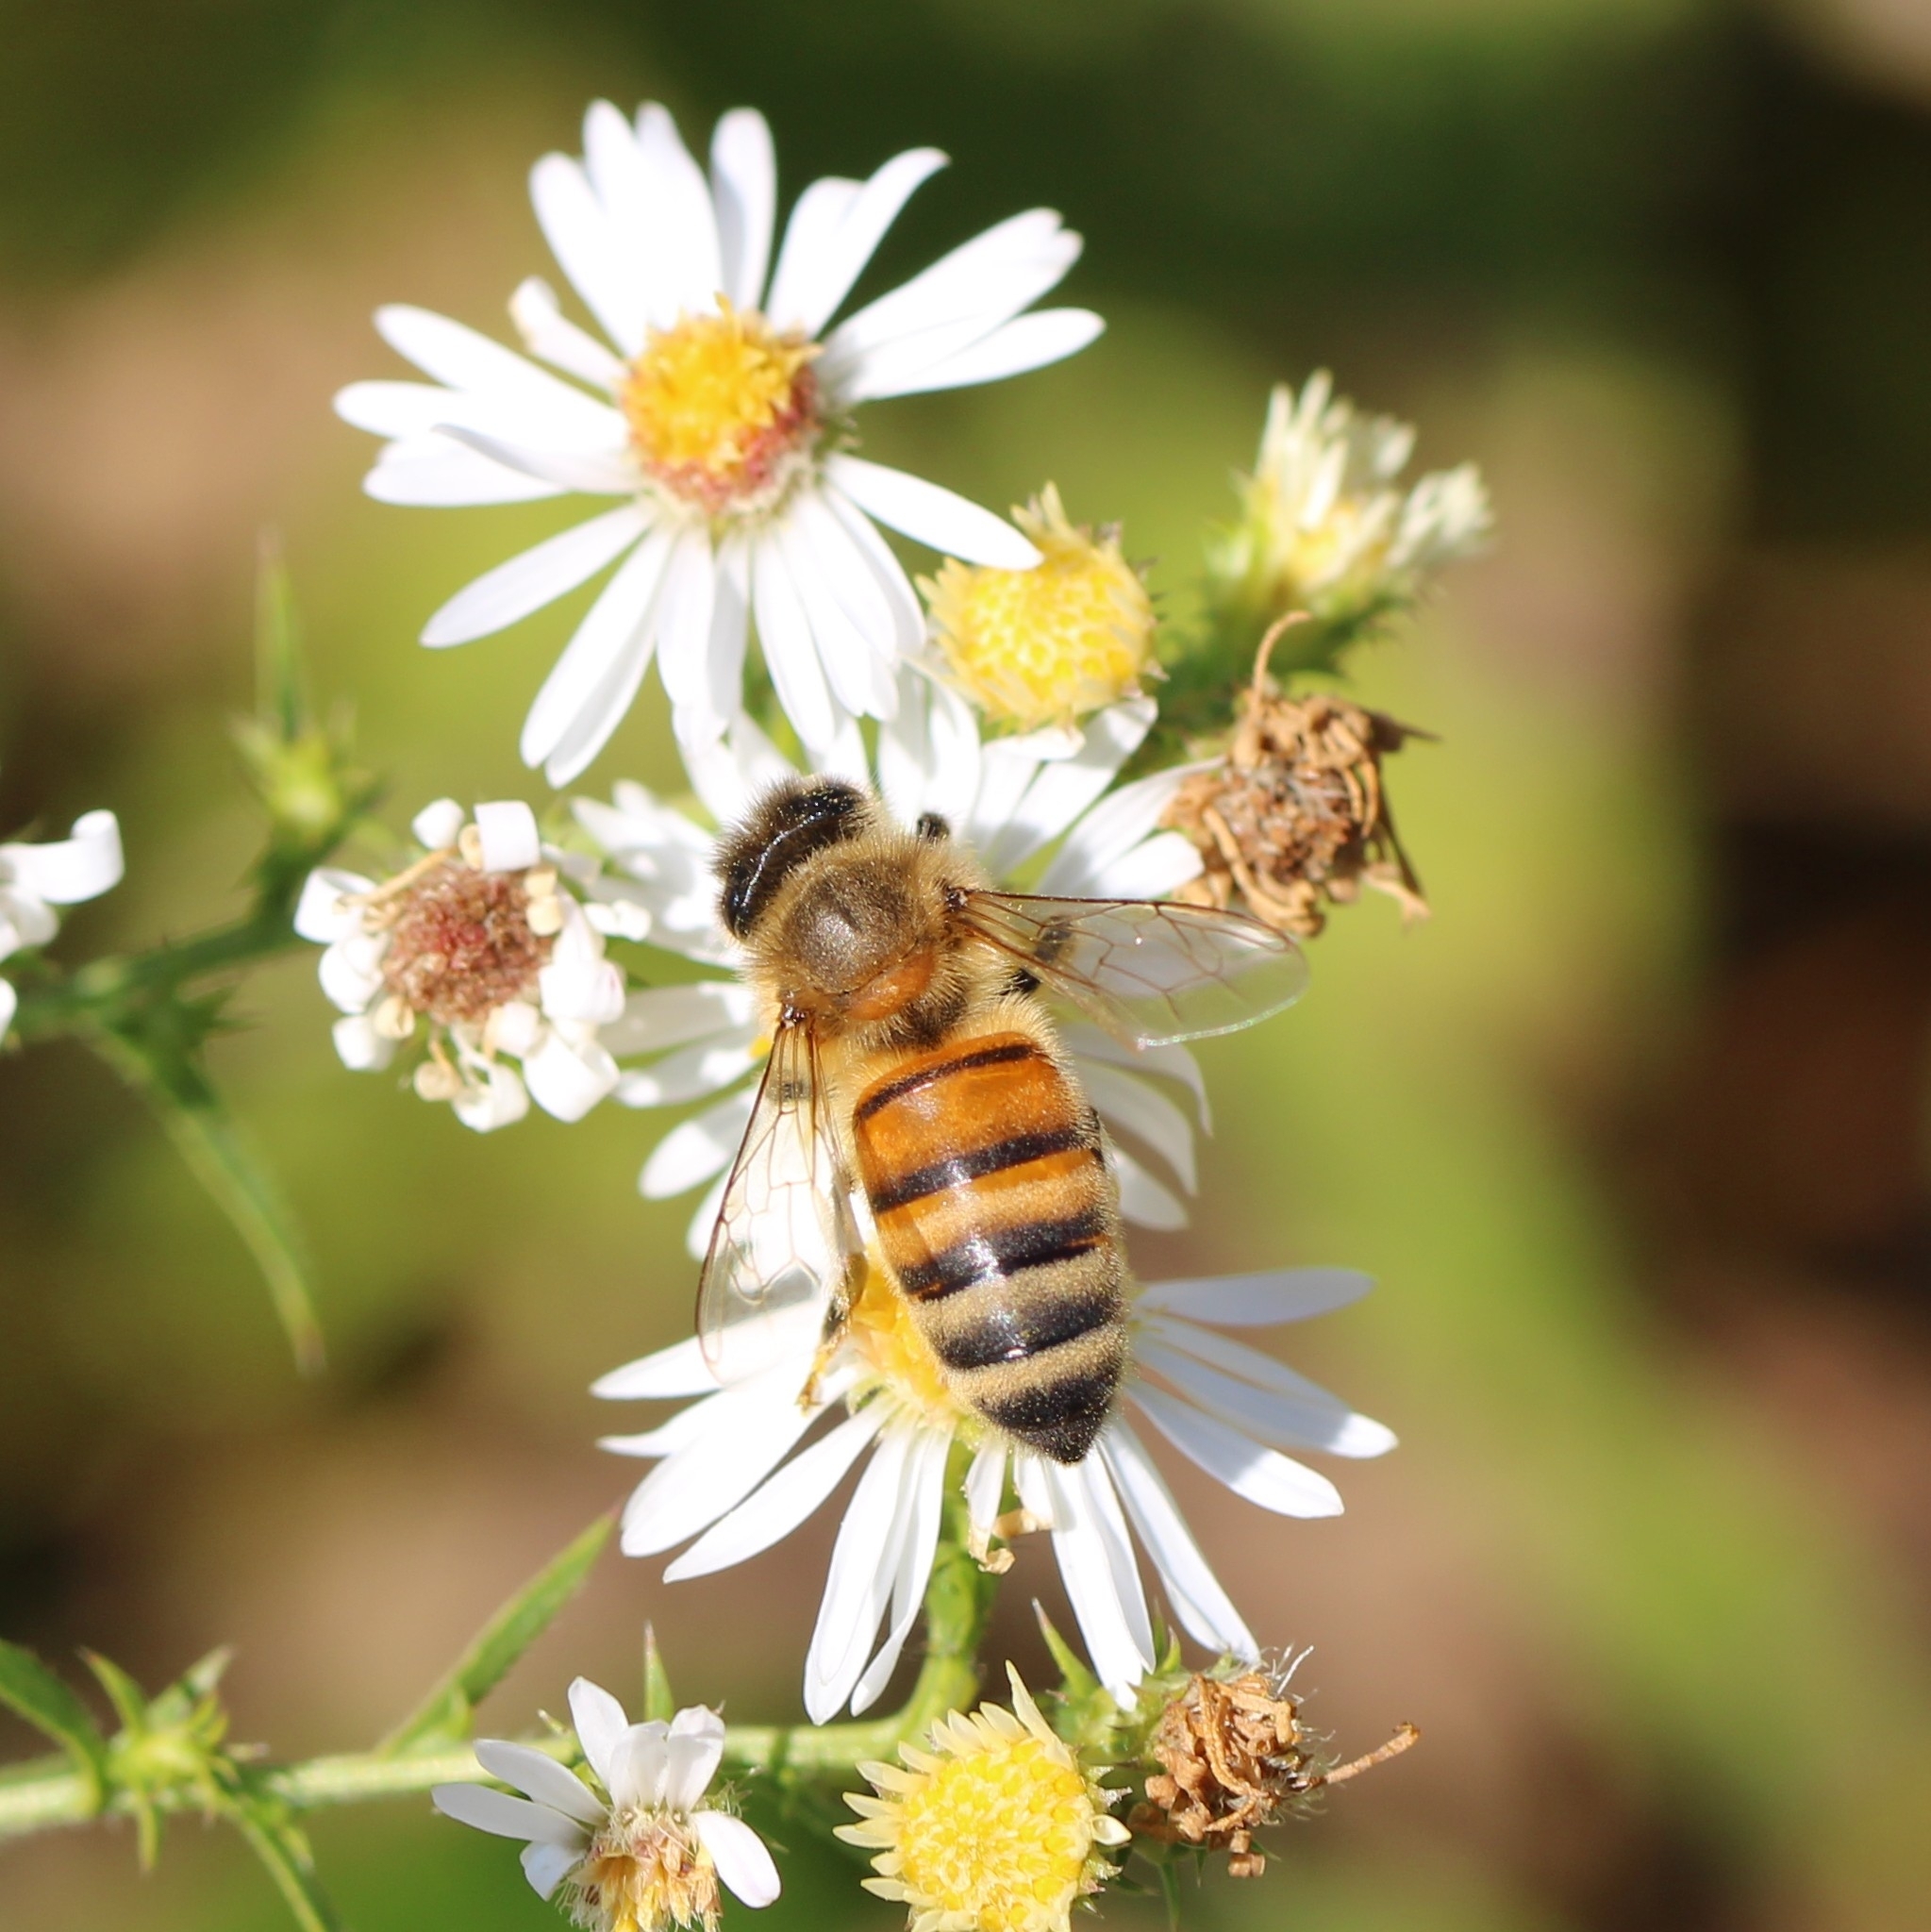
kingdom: Animalia
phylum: Arthropoda
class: Insecta
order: Hymenoptera
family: Apidae
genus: Apis
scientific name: Apis mellifera
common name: Honey bee
